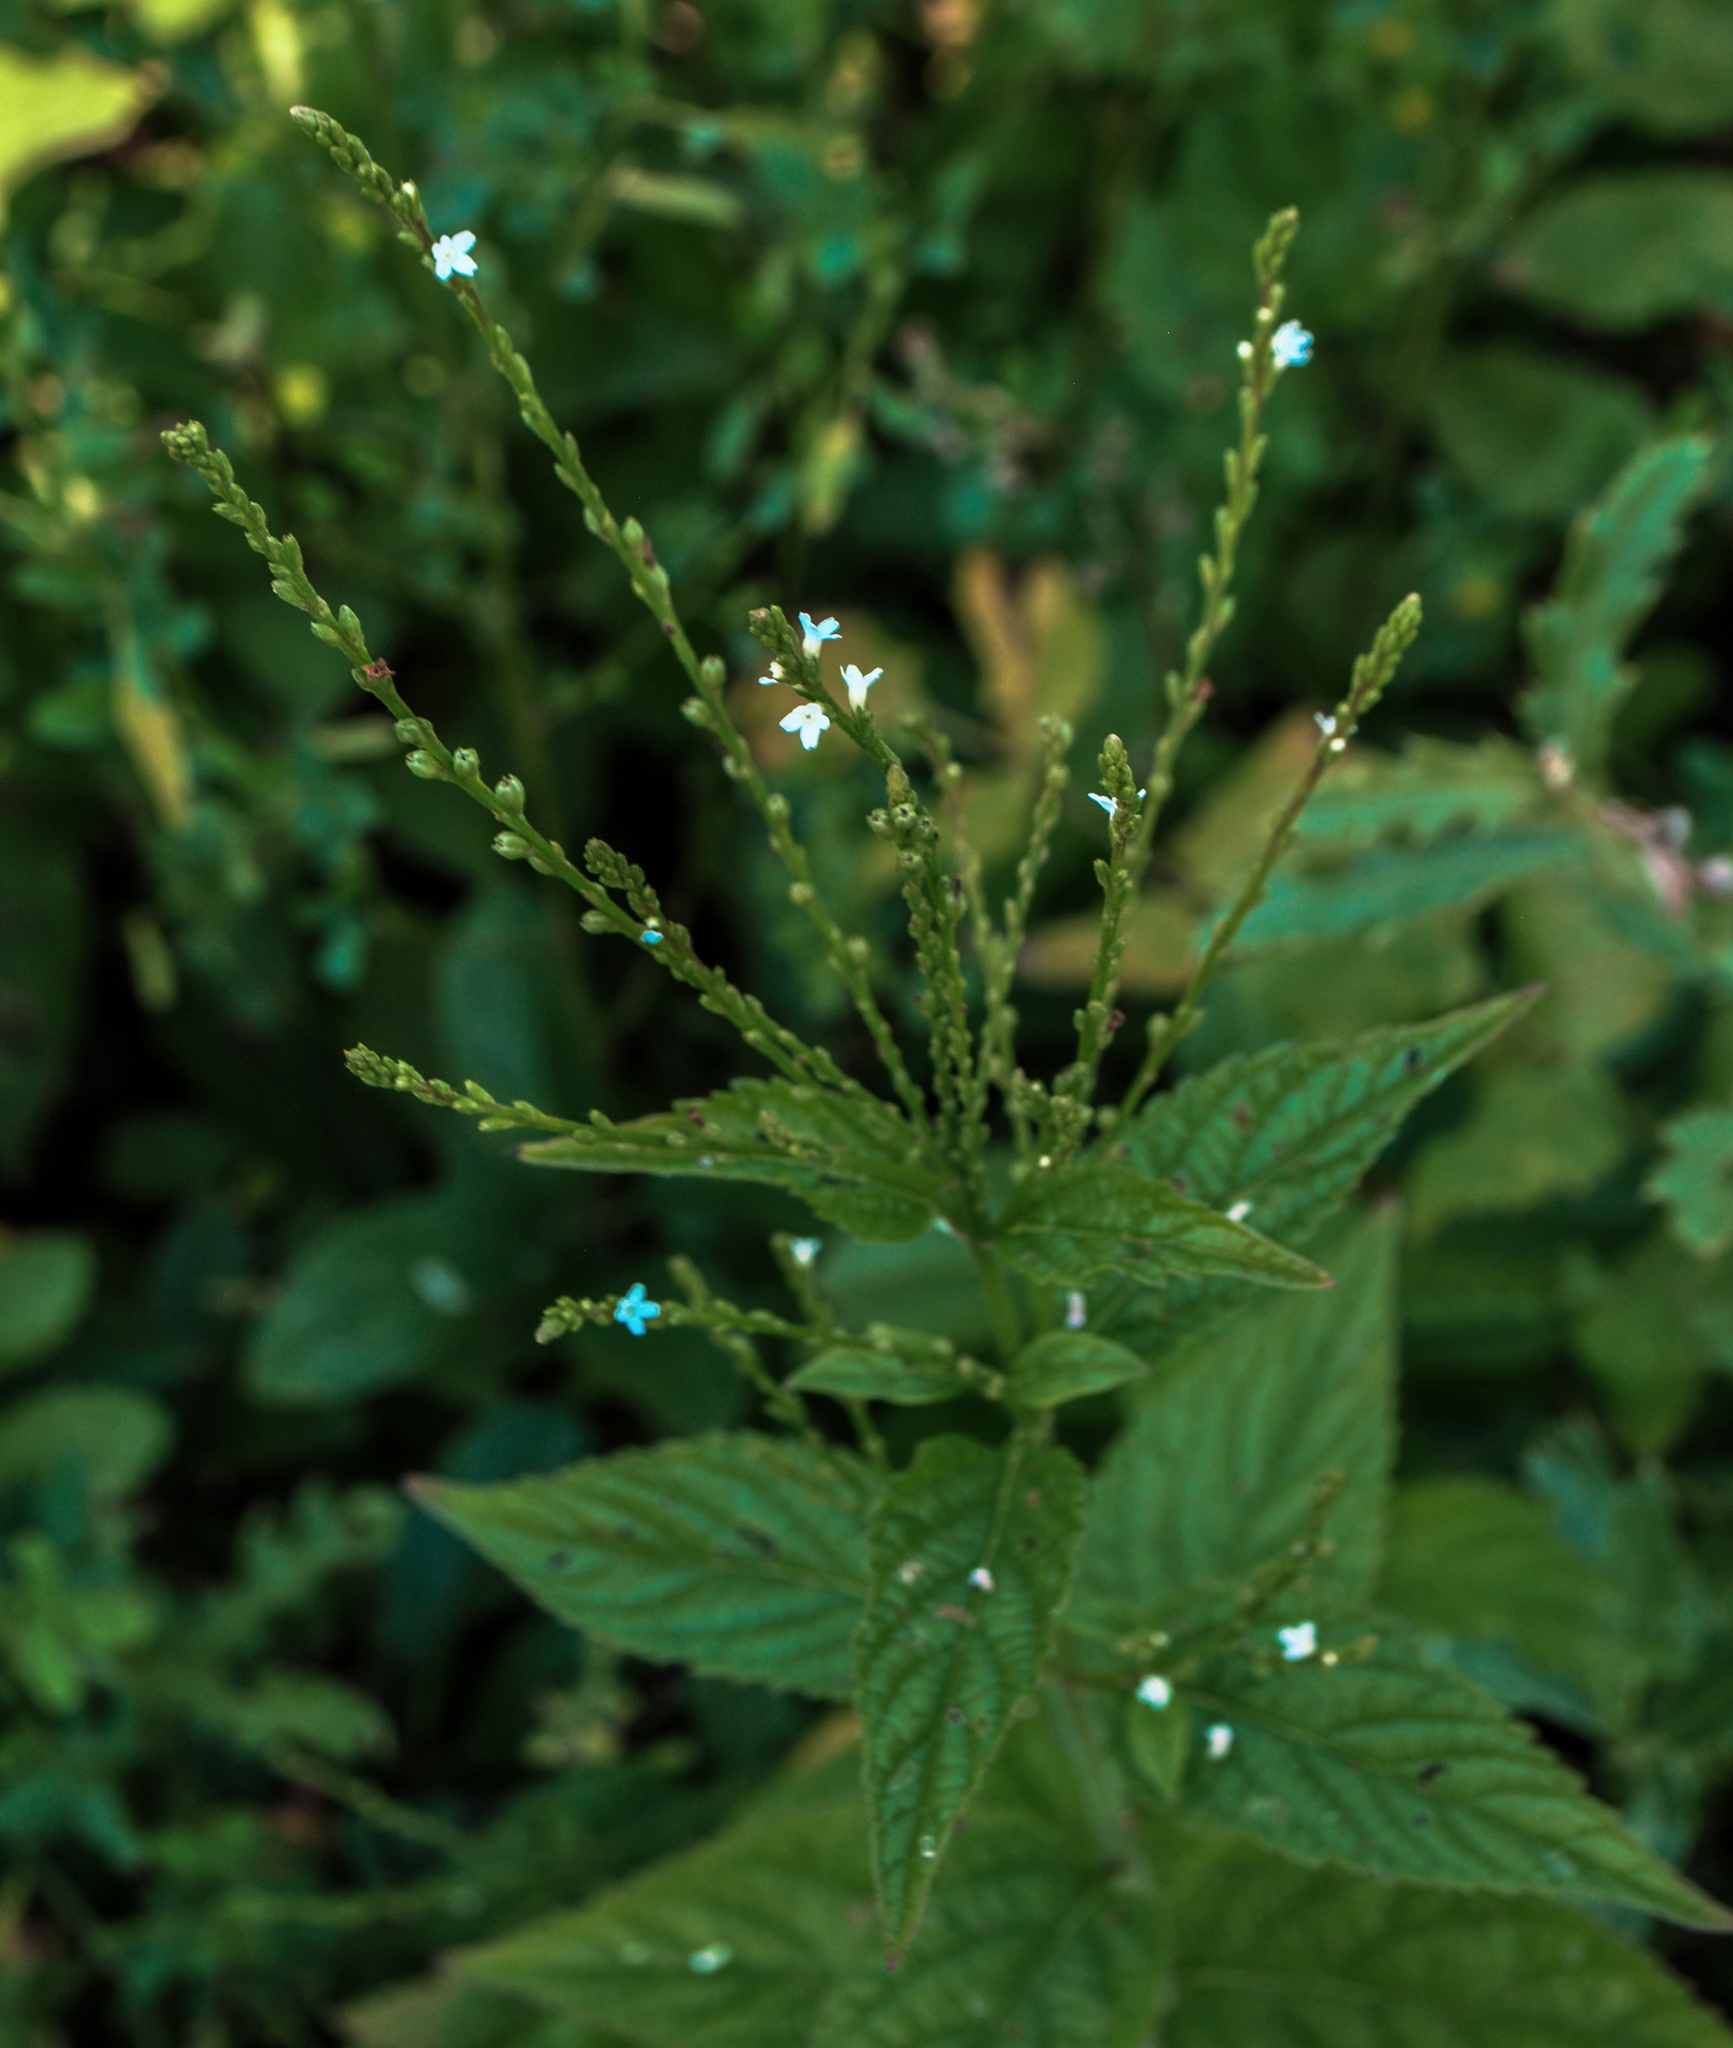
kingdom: Plantae
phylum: Tracheophyta
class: Magnoliopsida
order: Lamiales
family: Verbenaceae
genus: Verbena
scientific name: Verbena urticifolia
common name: Nettle-leaved vervain
